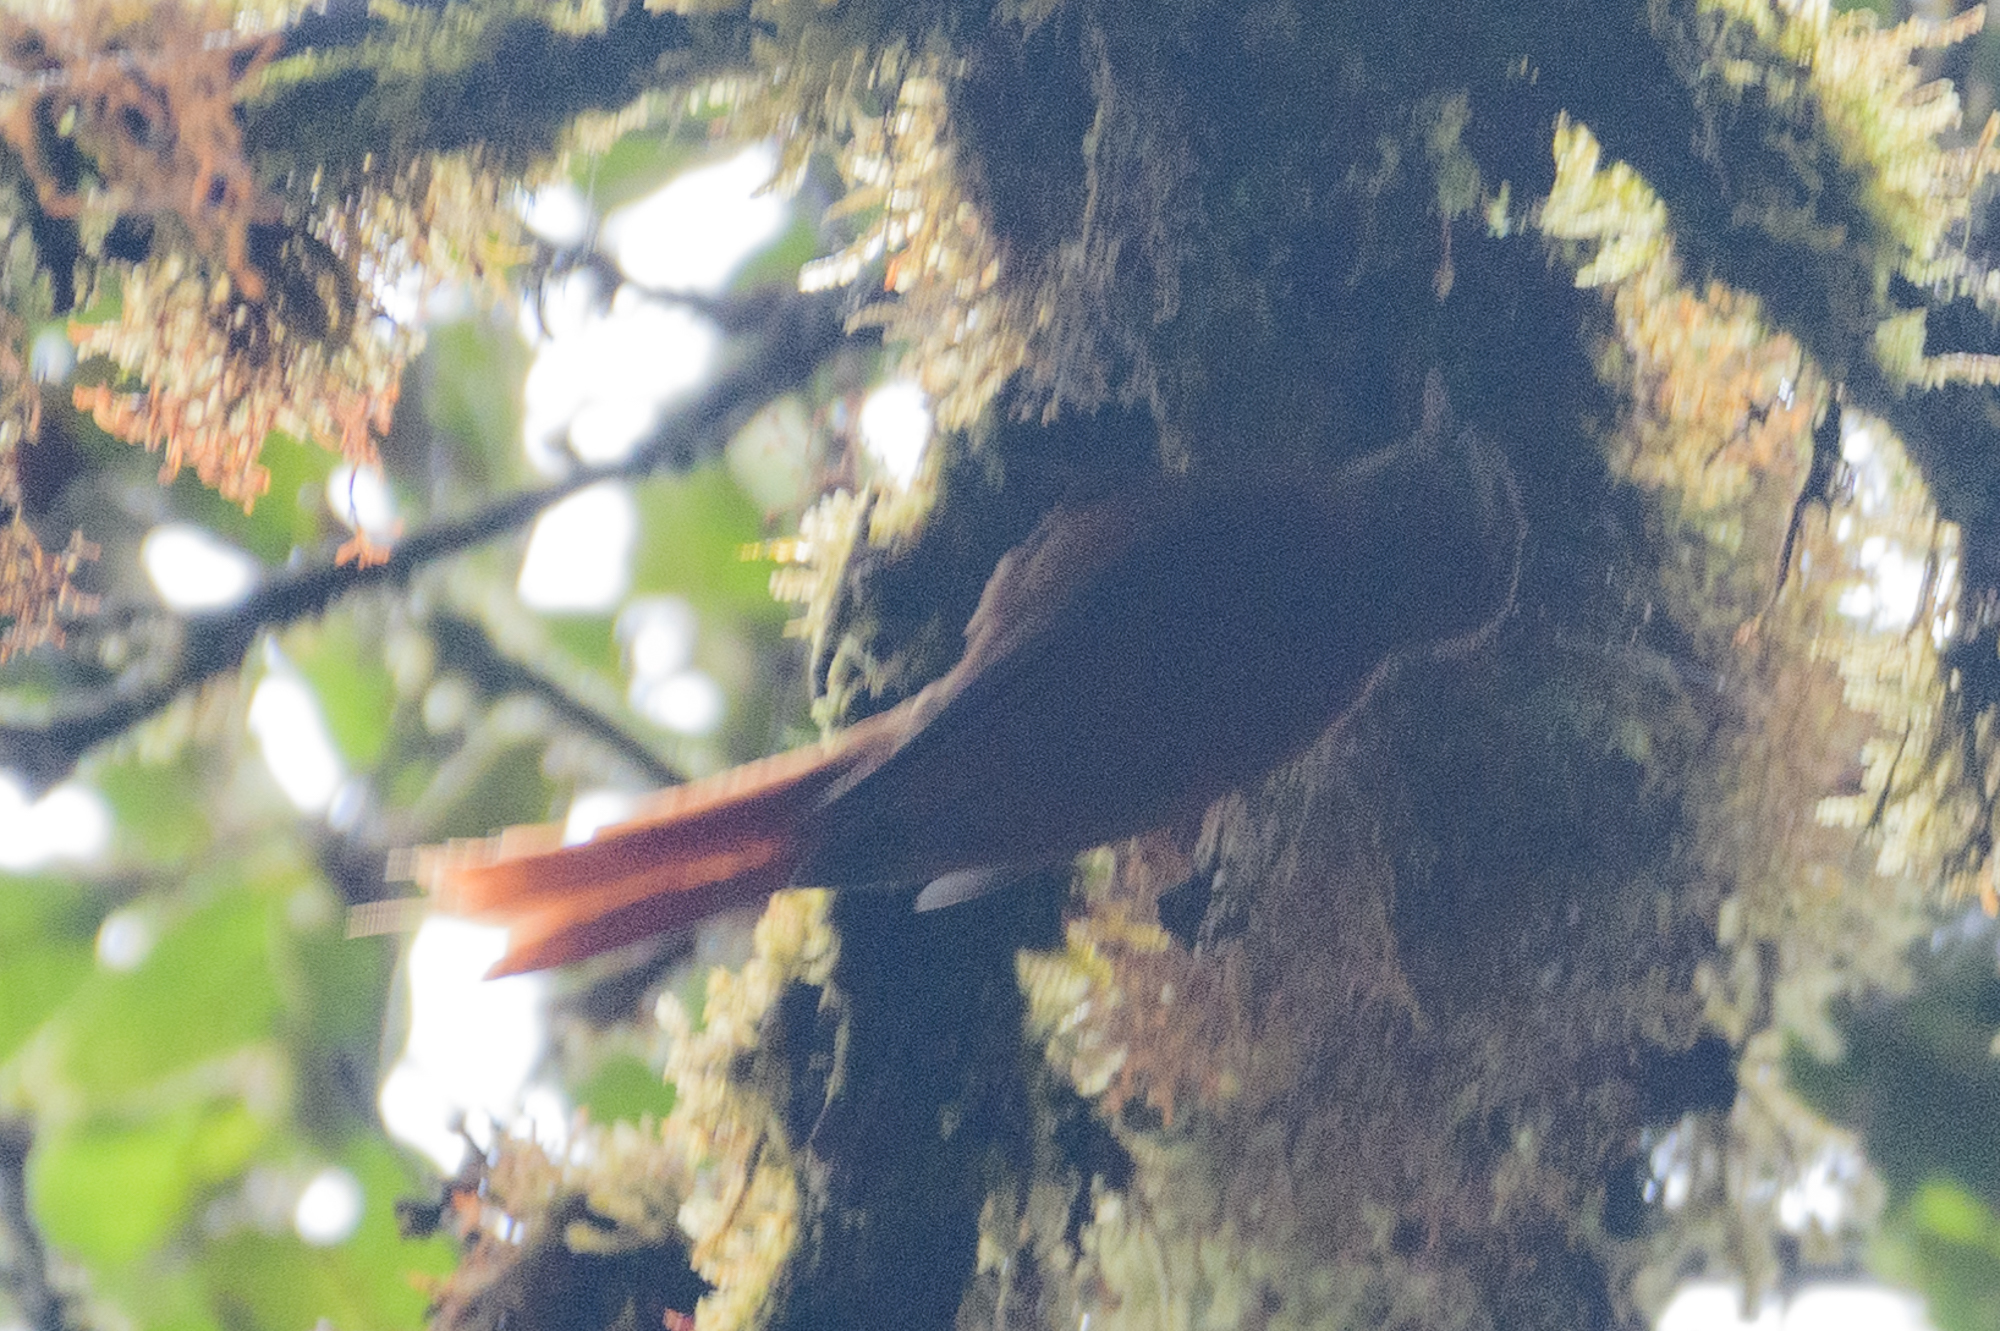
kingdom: Animalia
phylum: Chordata
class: Aves
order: Passeriformes
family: Furnariidae
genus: Margarornis
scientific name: Margarornis rubiginosus
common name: Ruddy treerunner
